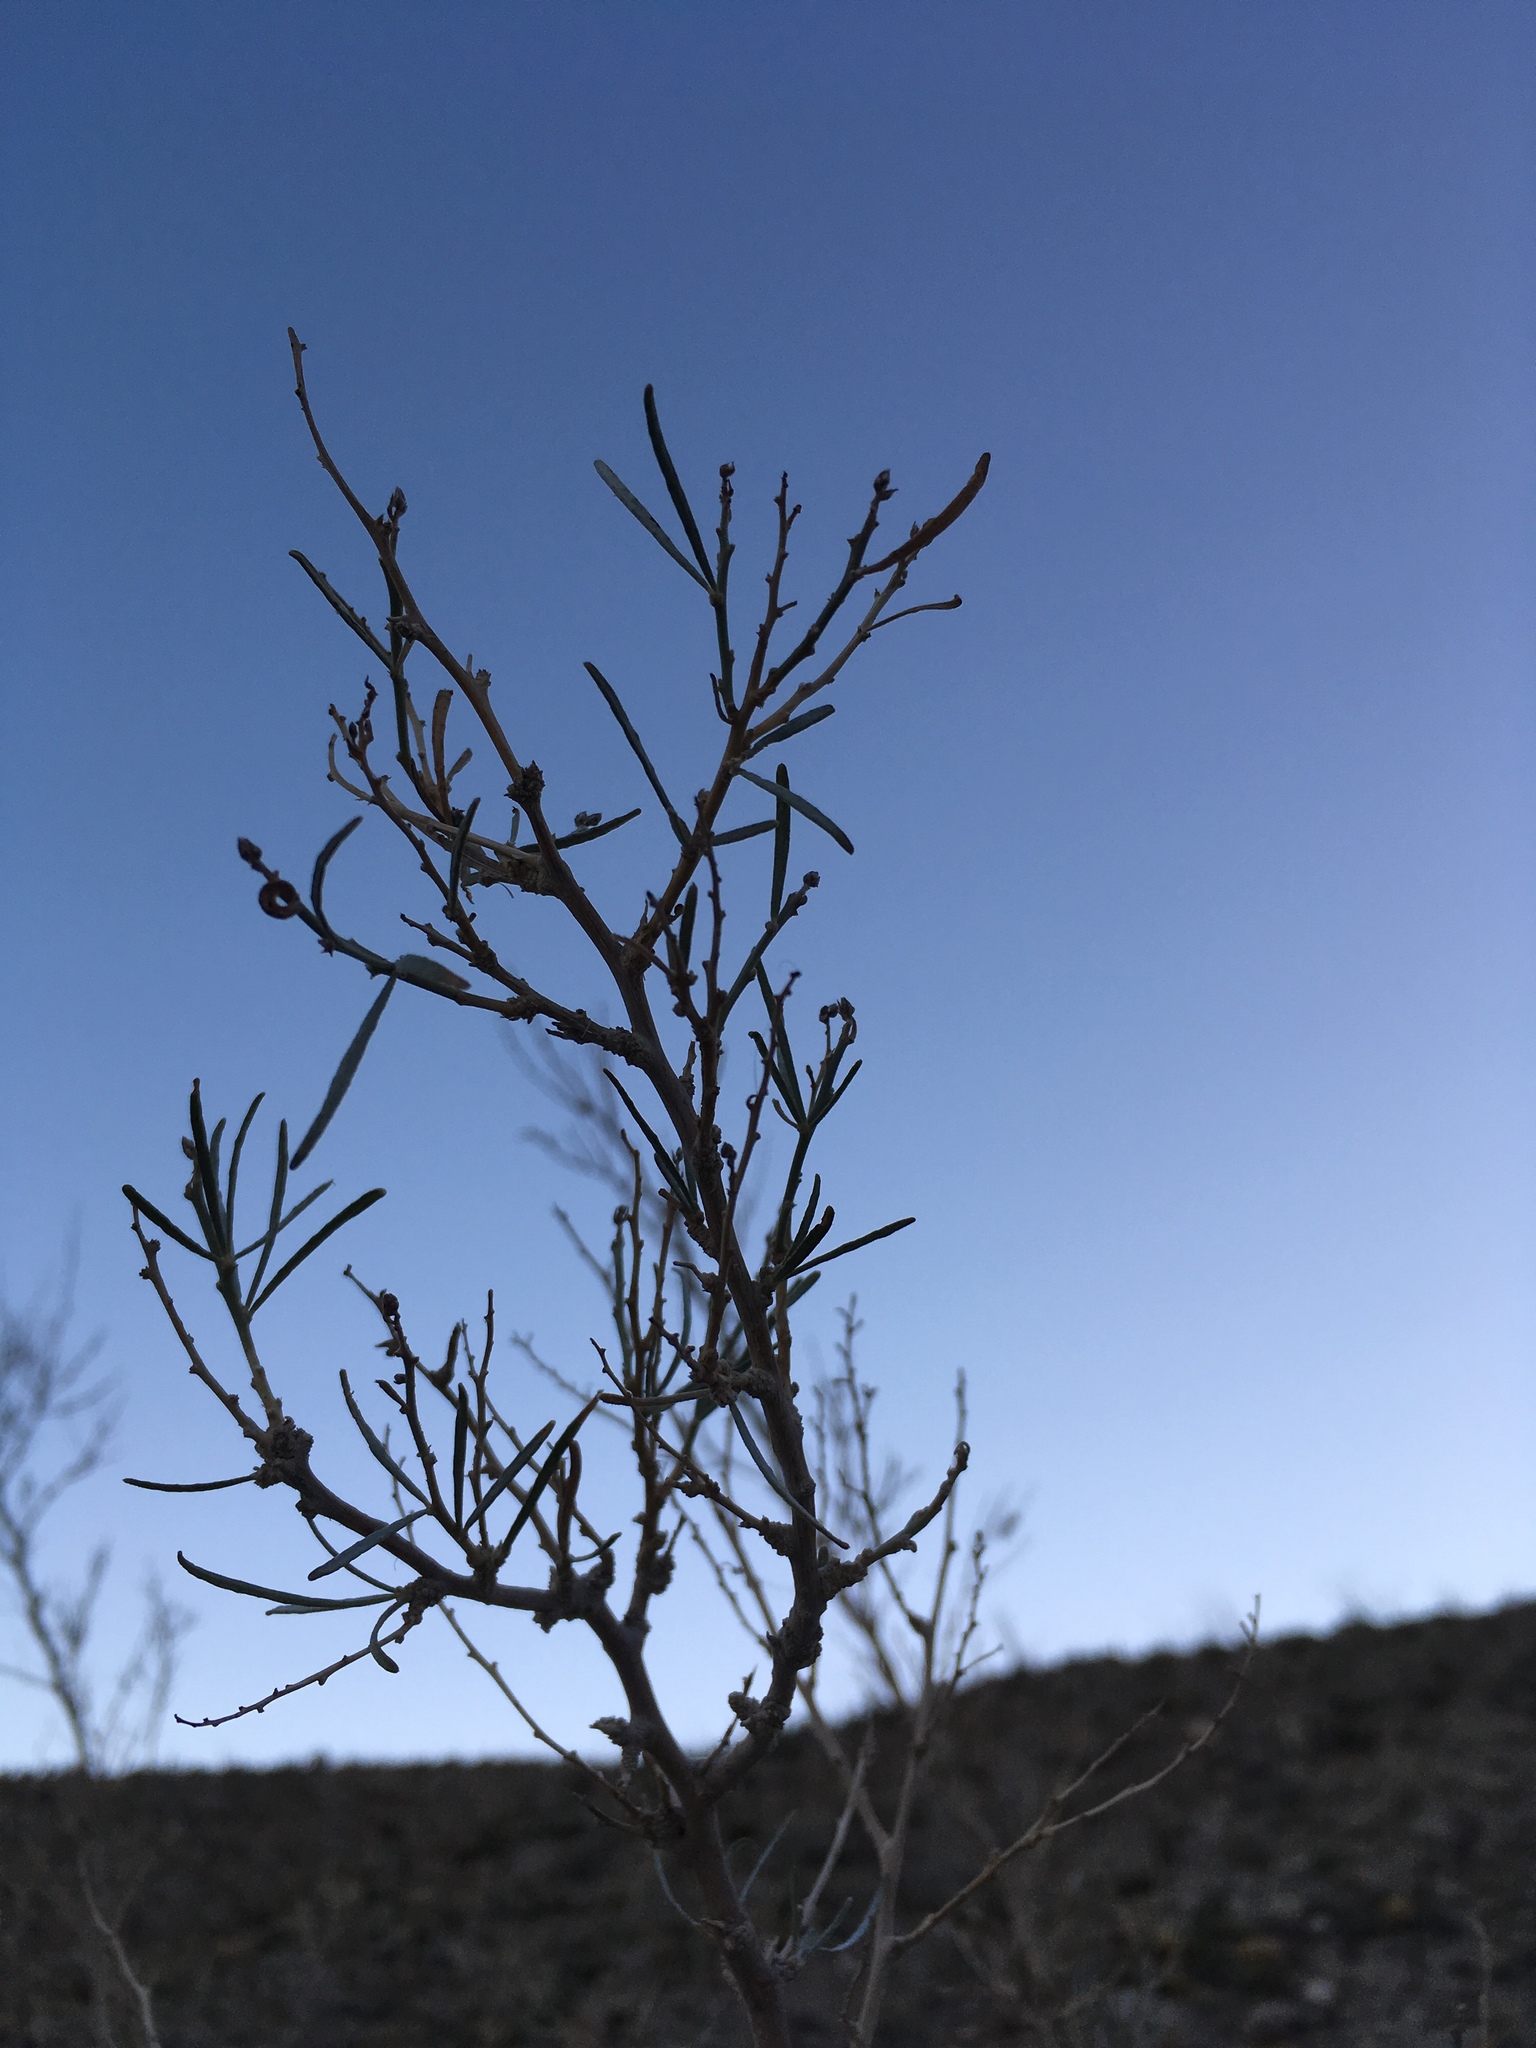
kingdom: Plantae
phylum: Tracheophyta
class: Magnoliopsida
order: Fabales
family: Fabaceae
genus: Psorothamnus
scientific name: Psorothamnus schottii
